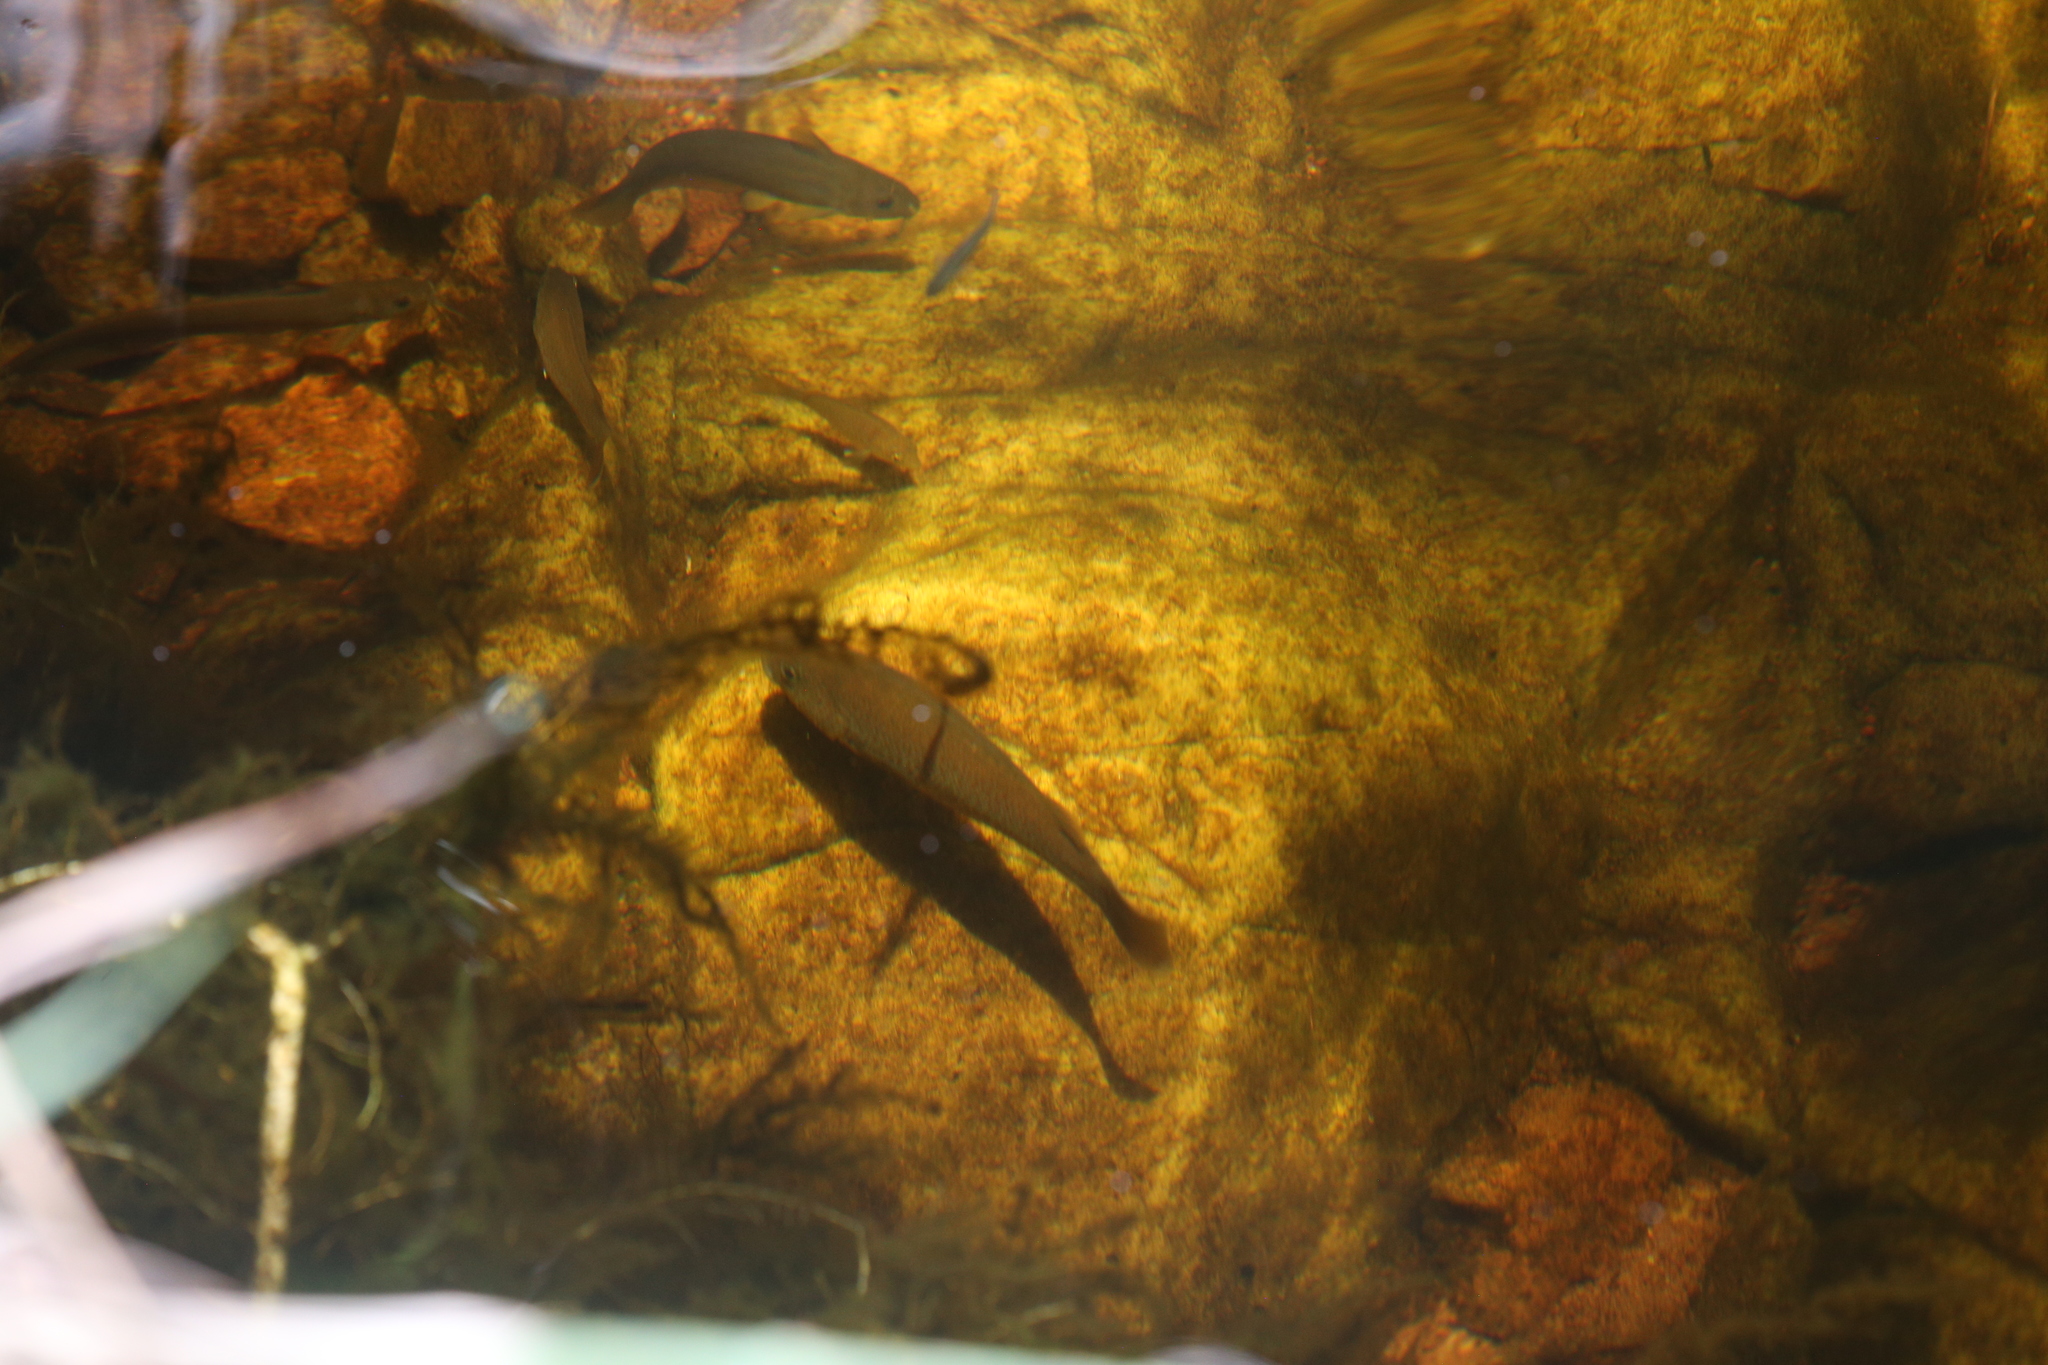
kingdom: Animalia
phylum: Chordata
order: Siluriformes
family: Plotosidae
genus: Neosilurus
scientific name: Neosilurus hyrtlii
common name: Hyrtl's catfish
